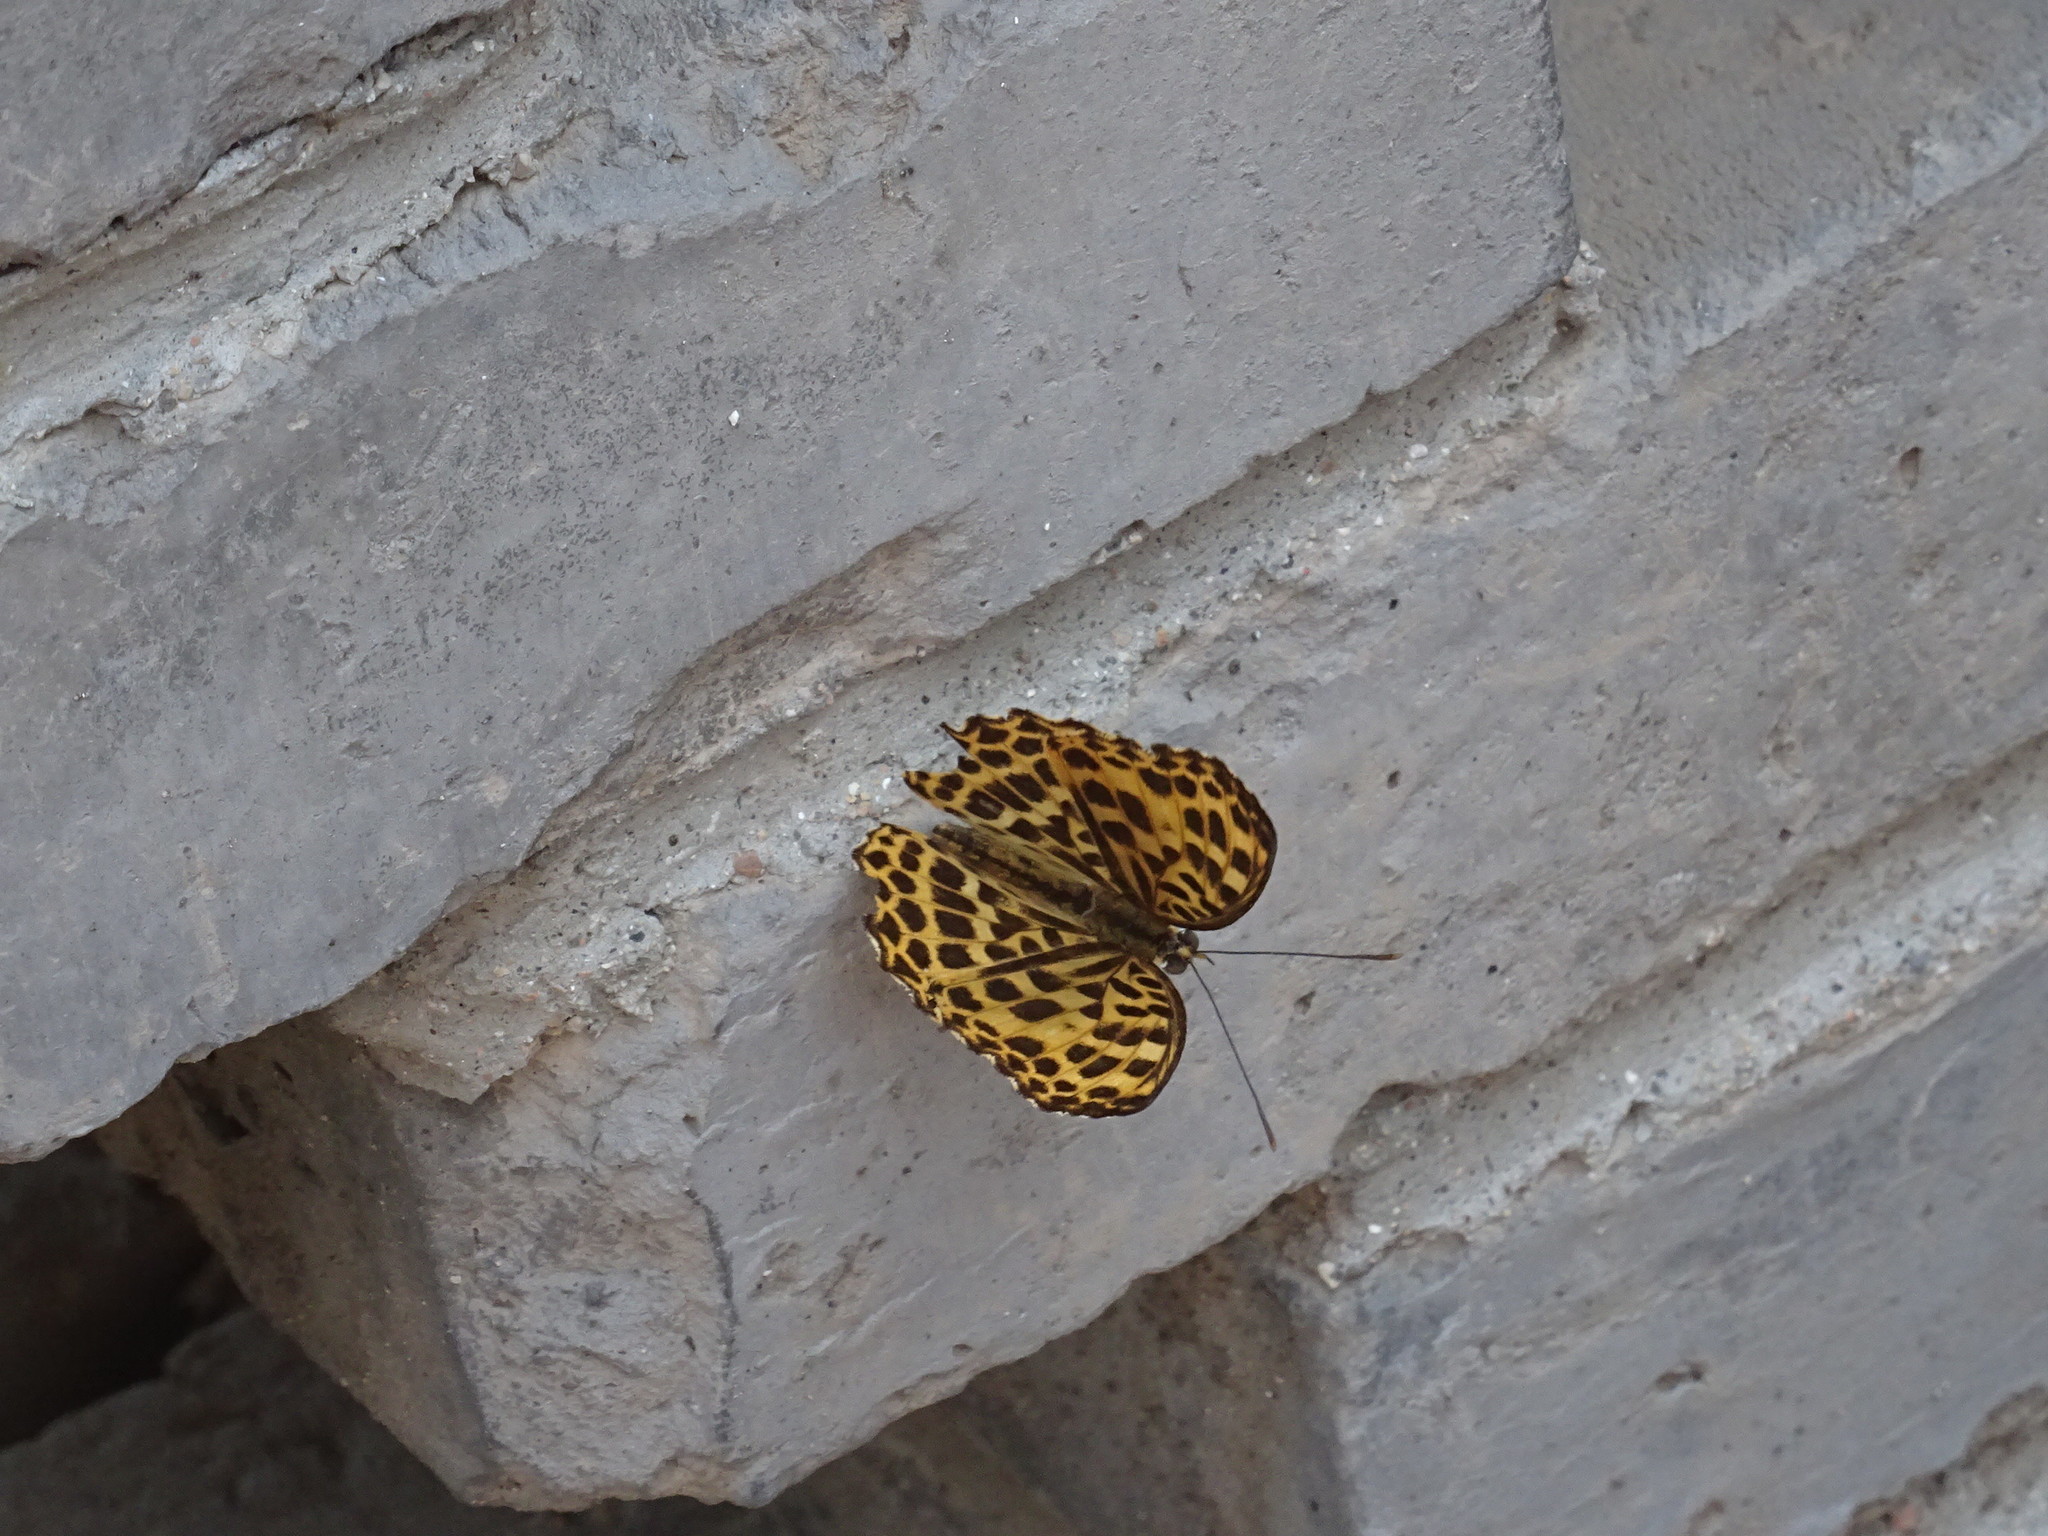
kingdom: Animalia
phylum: Arthropoda
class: Insecta
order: Lepidoptera
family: Nymphalidae
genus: Timelaea
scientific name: Timelaea maculata
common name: Spotted leopard butterfly
